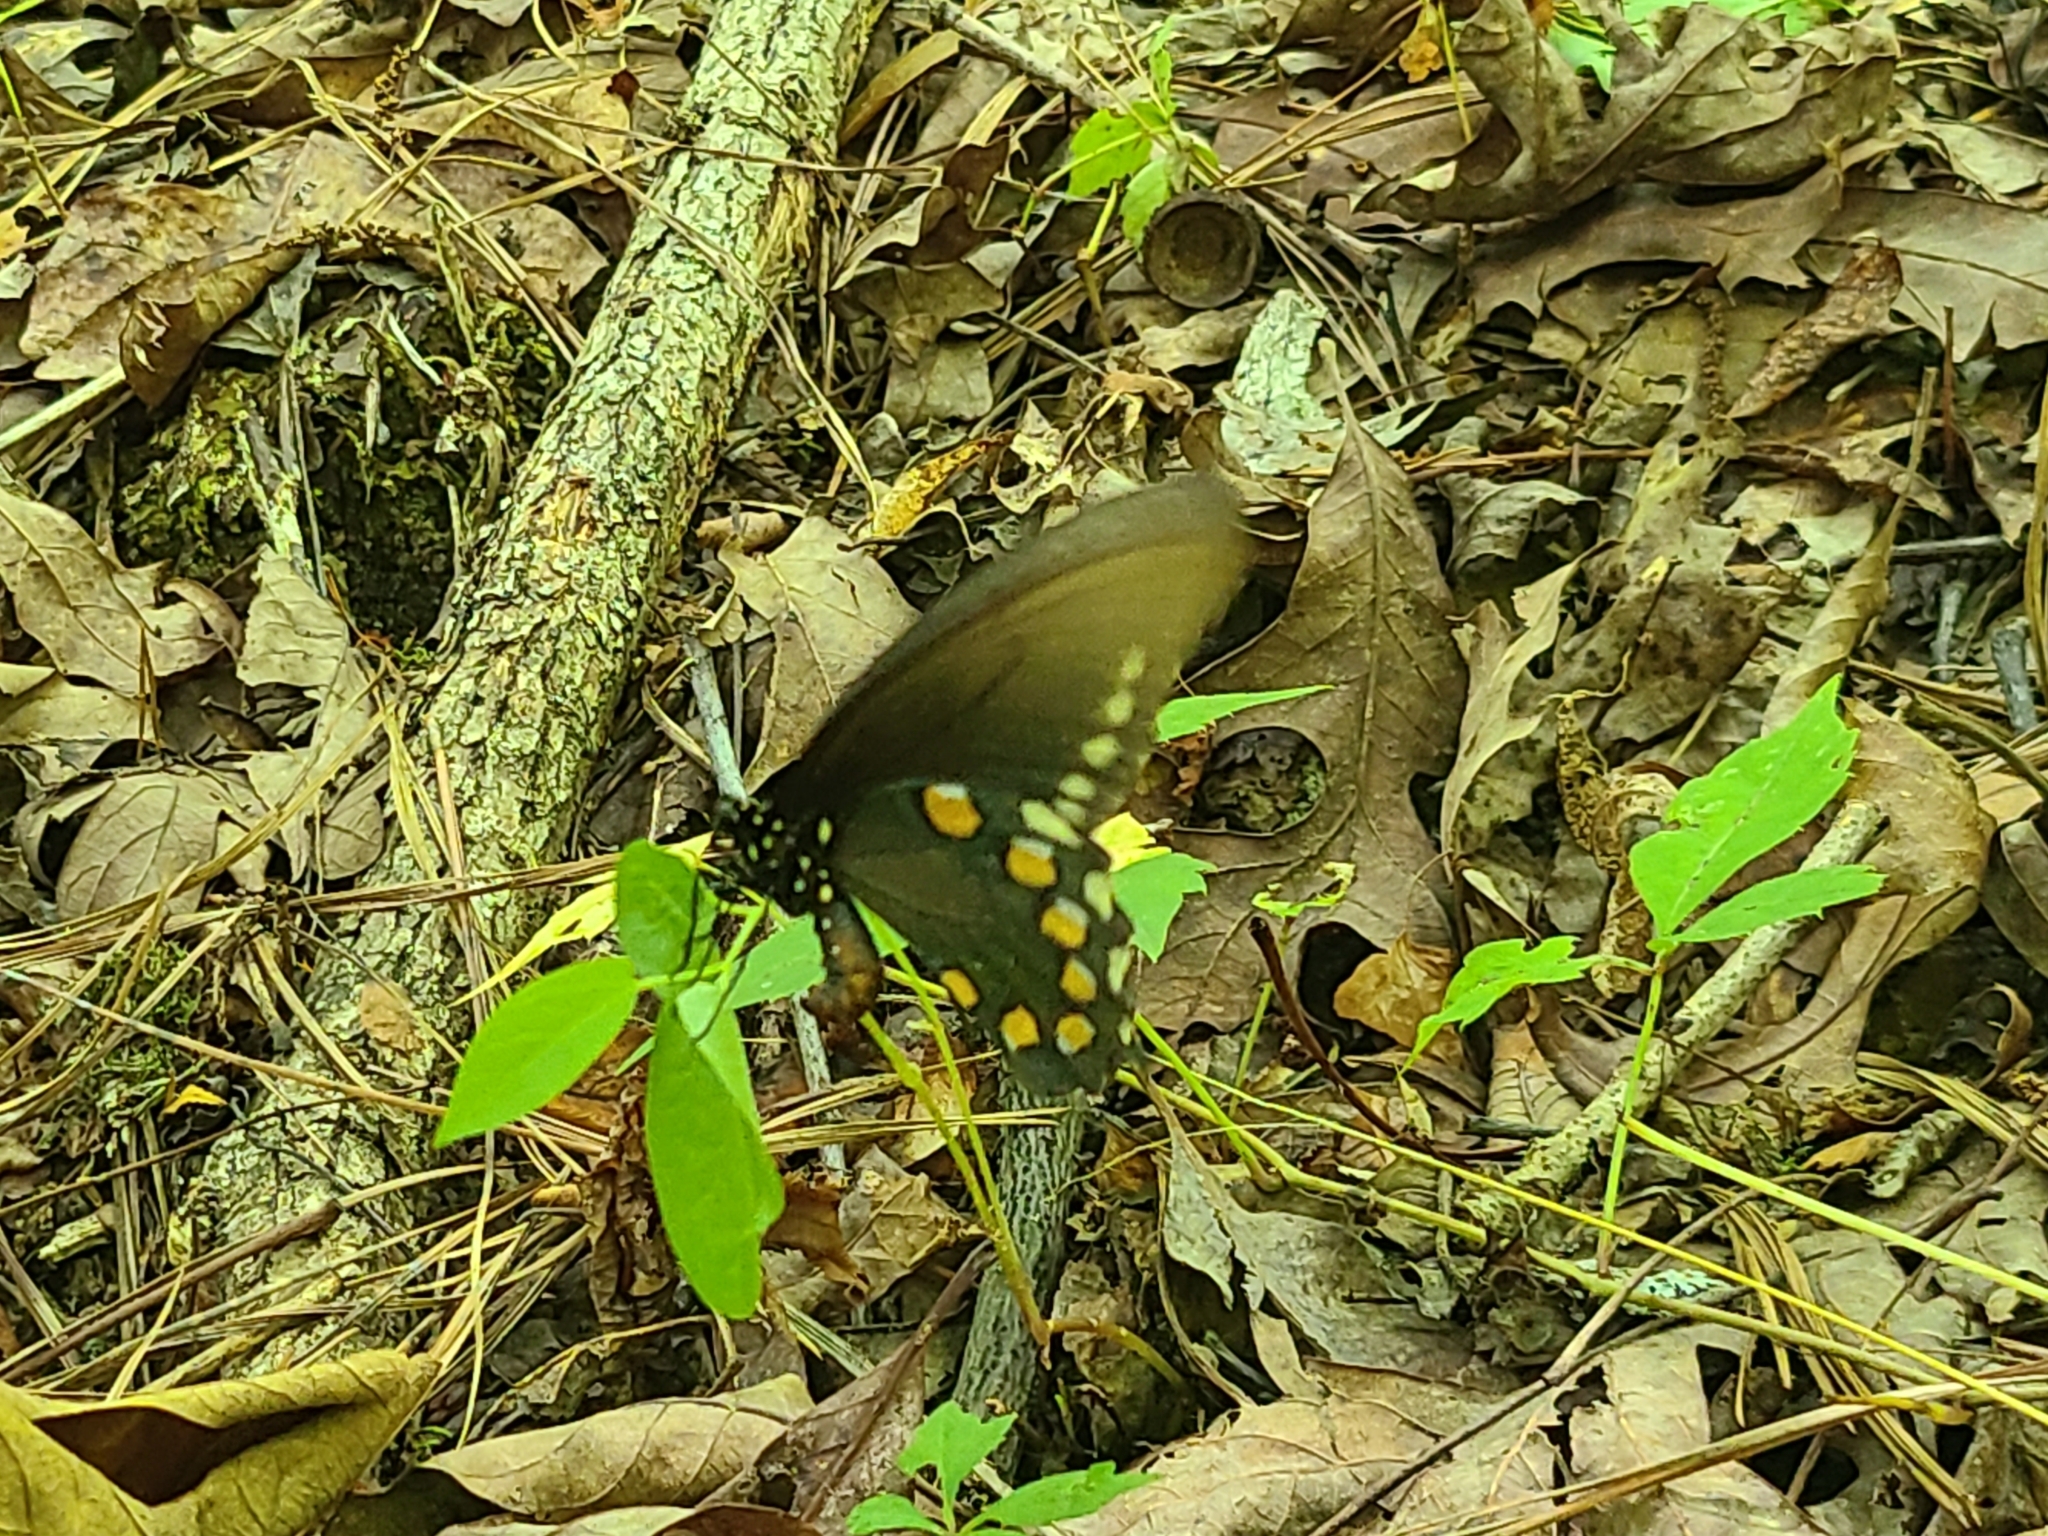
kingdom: Animalia
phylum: Arthropoda
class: Insecta
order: Lepidoptera
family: Papilionidae
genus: Battus
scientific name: Battus philenor
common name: Pipevine swallowtail
